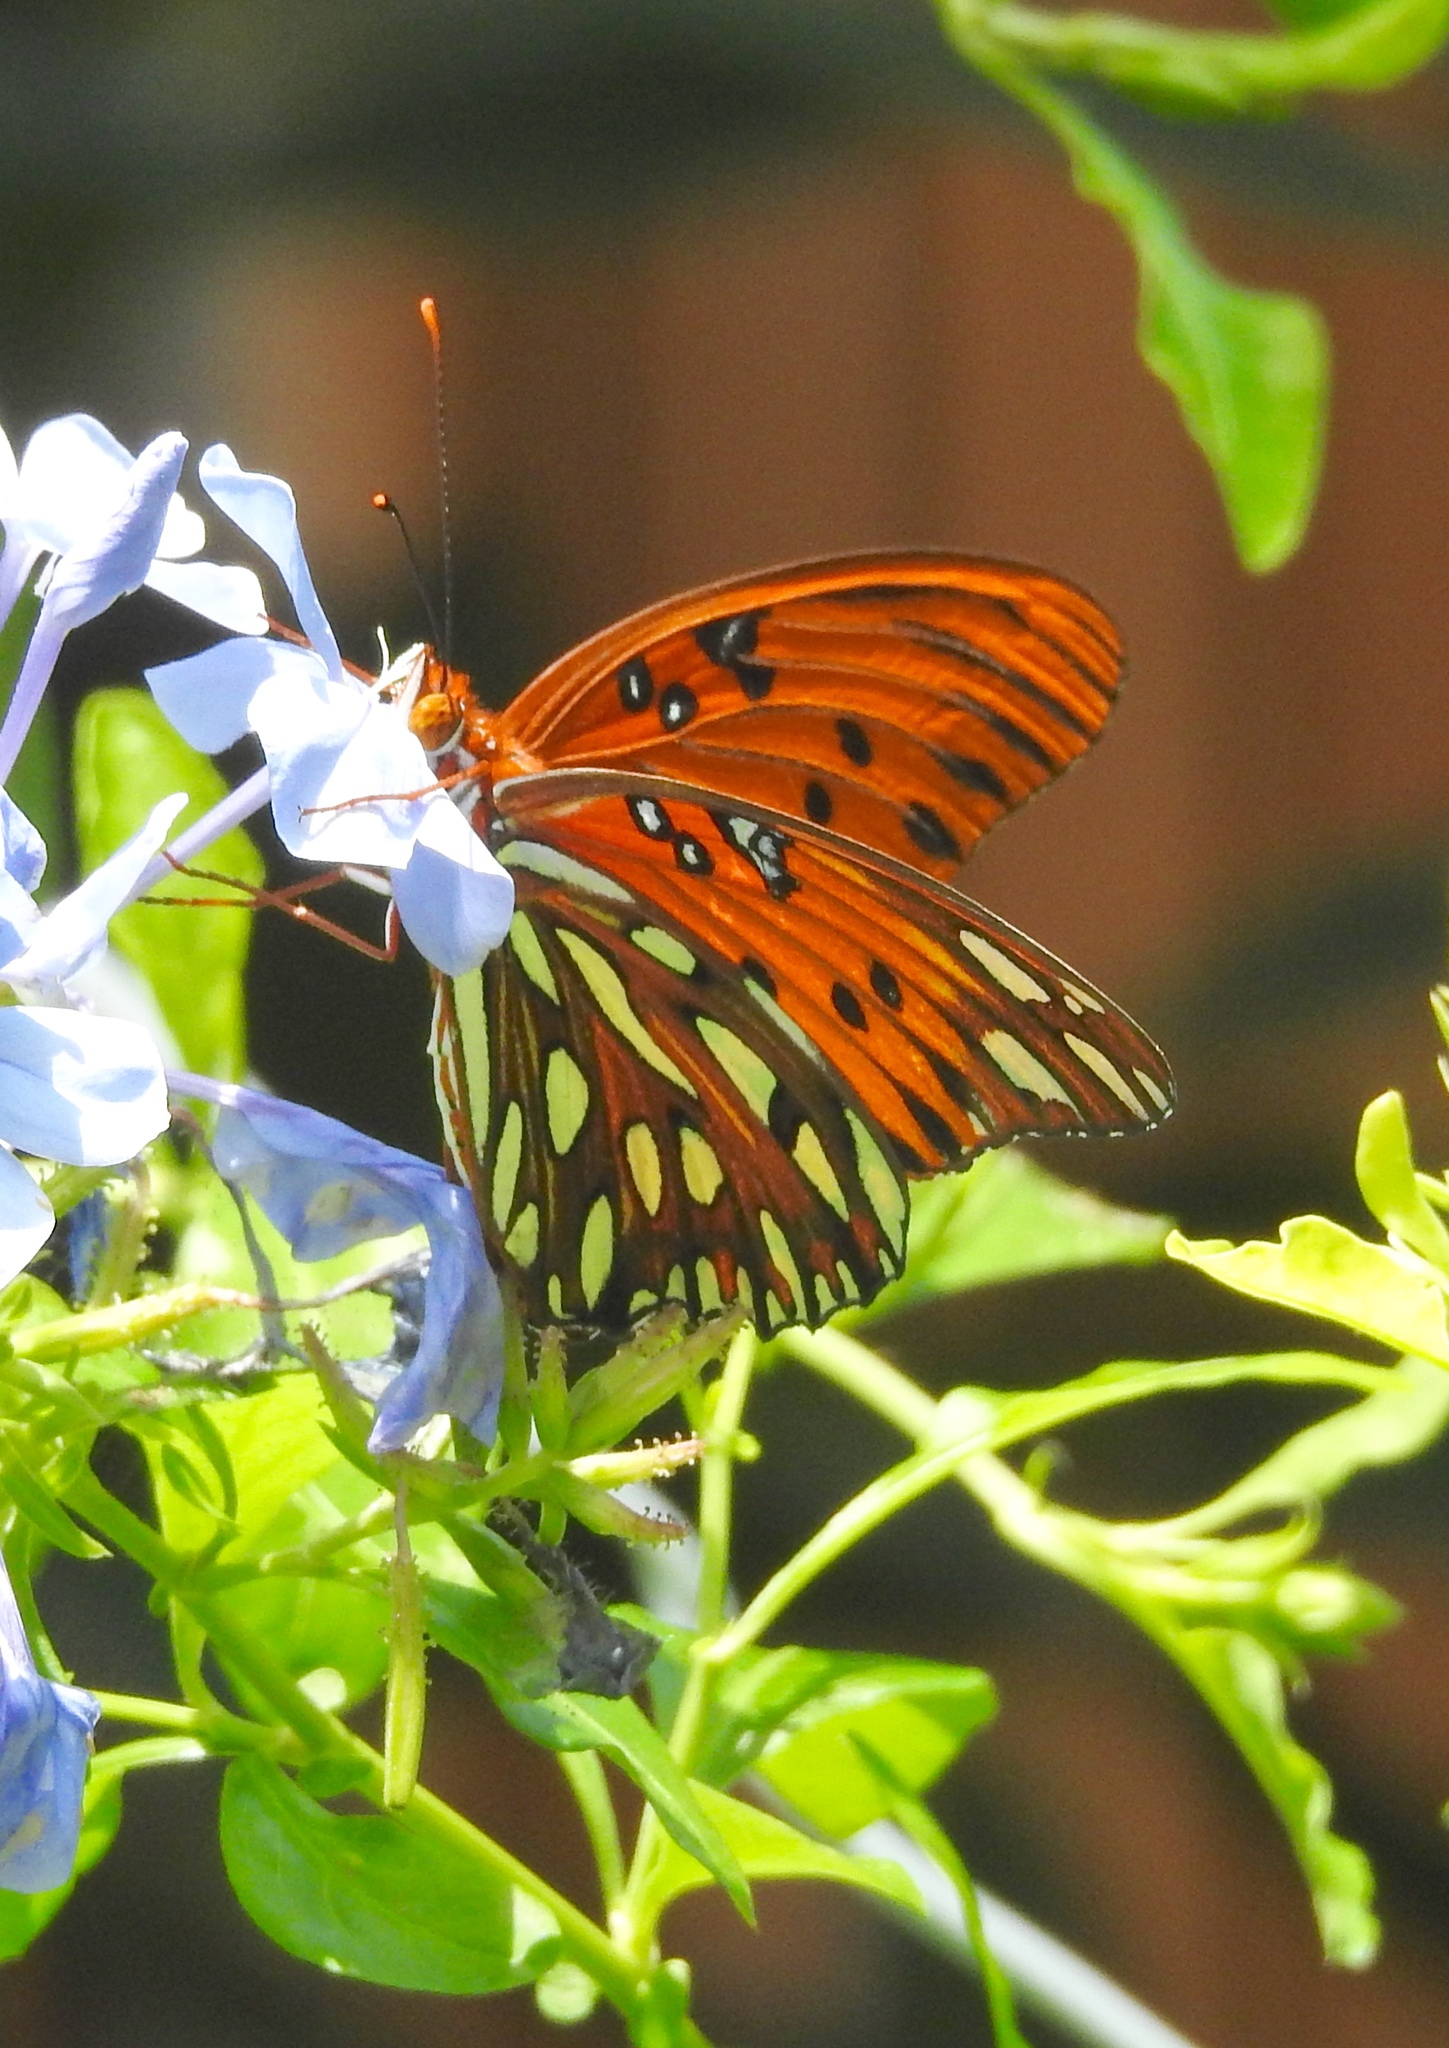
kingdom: Animalia
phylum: Arthropoda
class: Insecta
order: Lepidoptera
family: Nymphalidae
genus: Dione
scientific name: Dione vanillae
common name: Gulf fritillary
